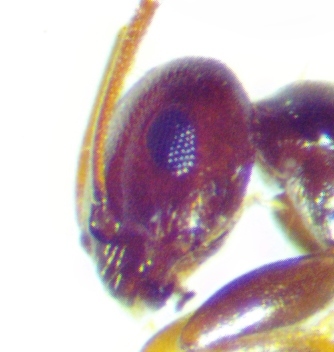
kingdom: Animalia
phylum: Arthropoda
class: Insecta
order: Hymenoptera
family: Formicidae
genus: Brachymyrmex
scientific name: Brachymyrmex patagonicus
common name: Dark rover ant
